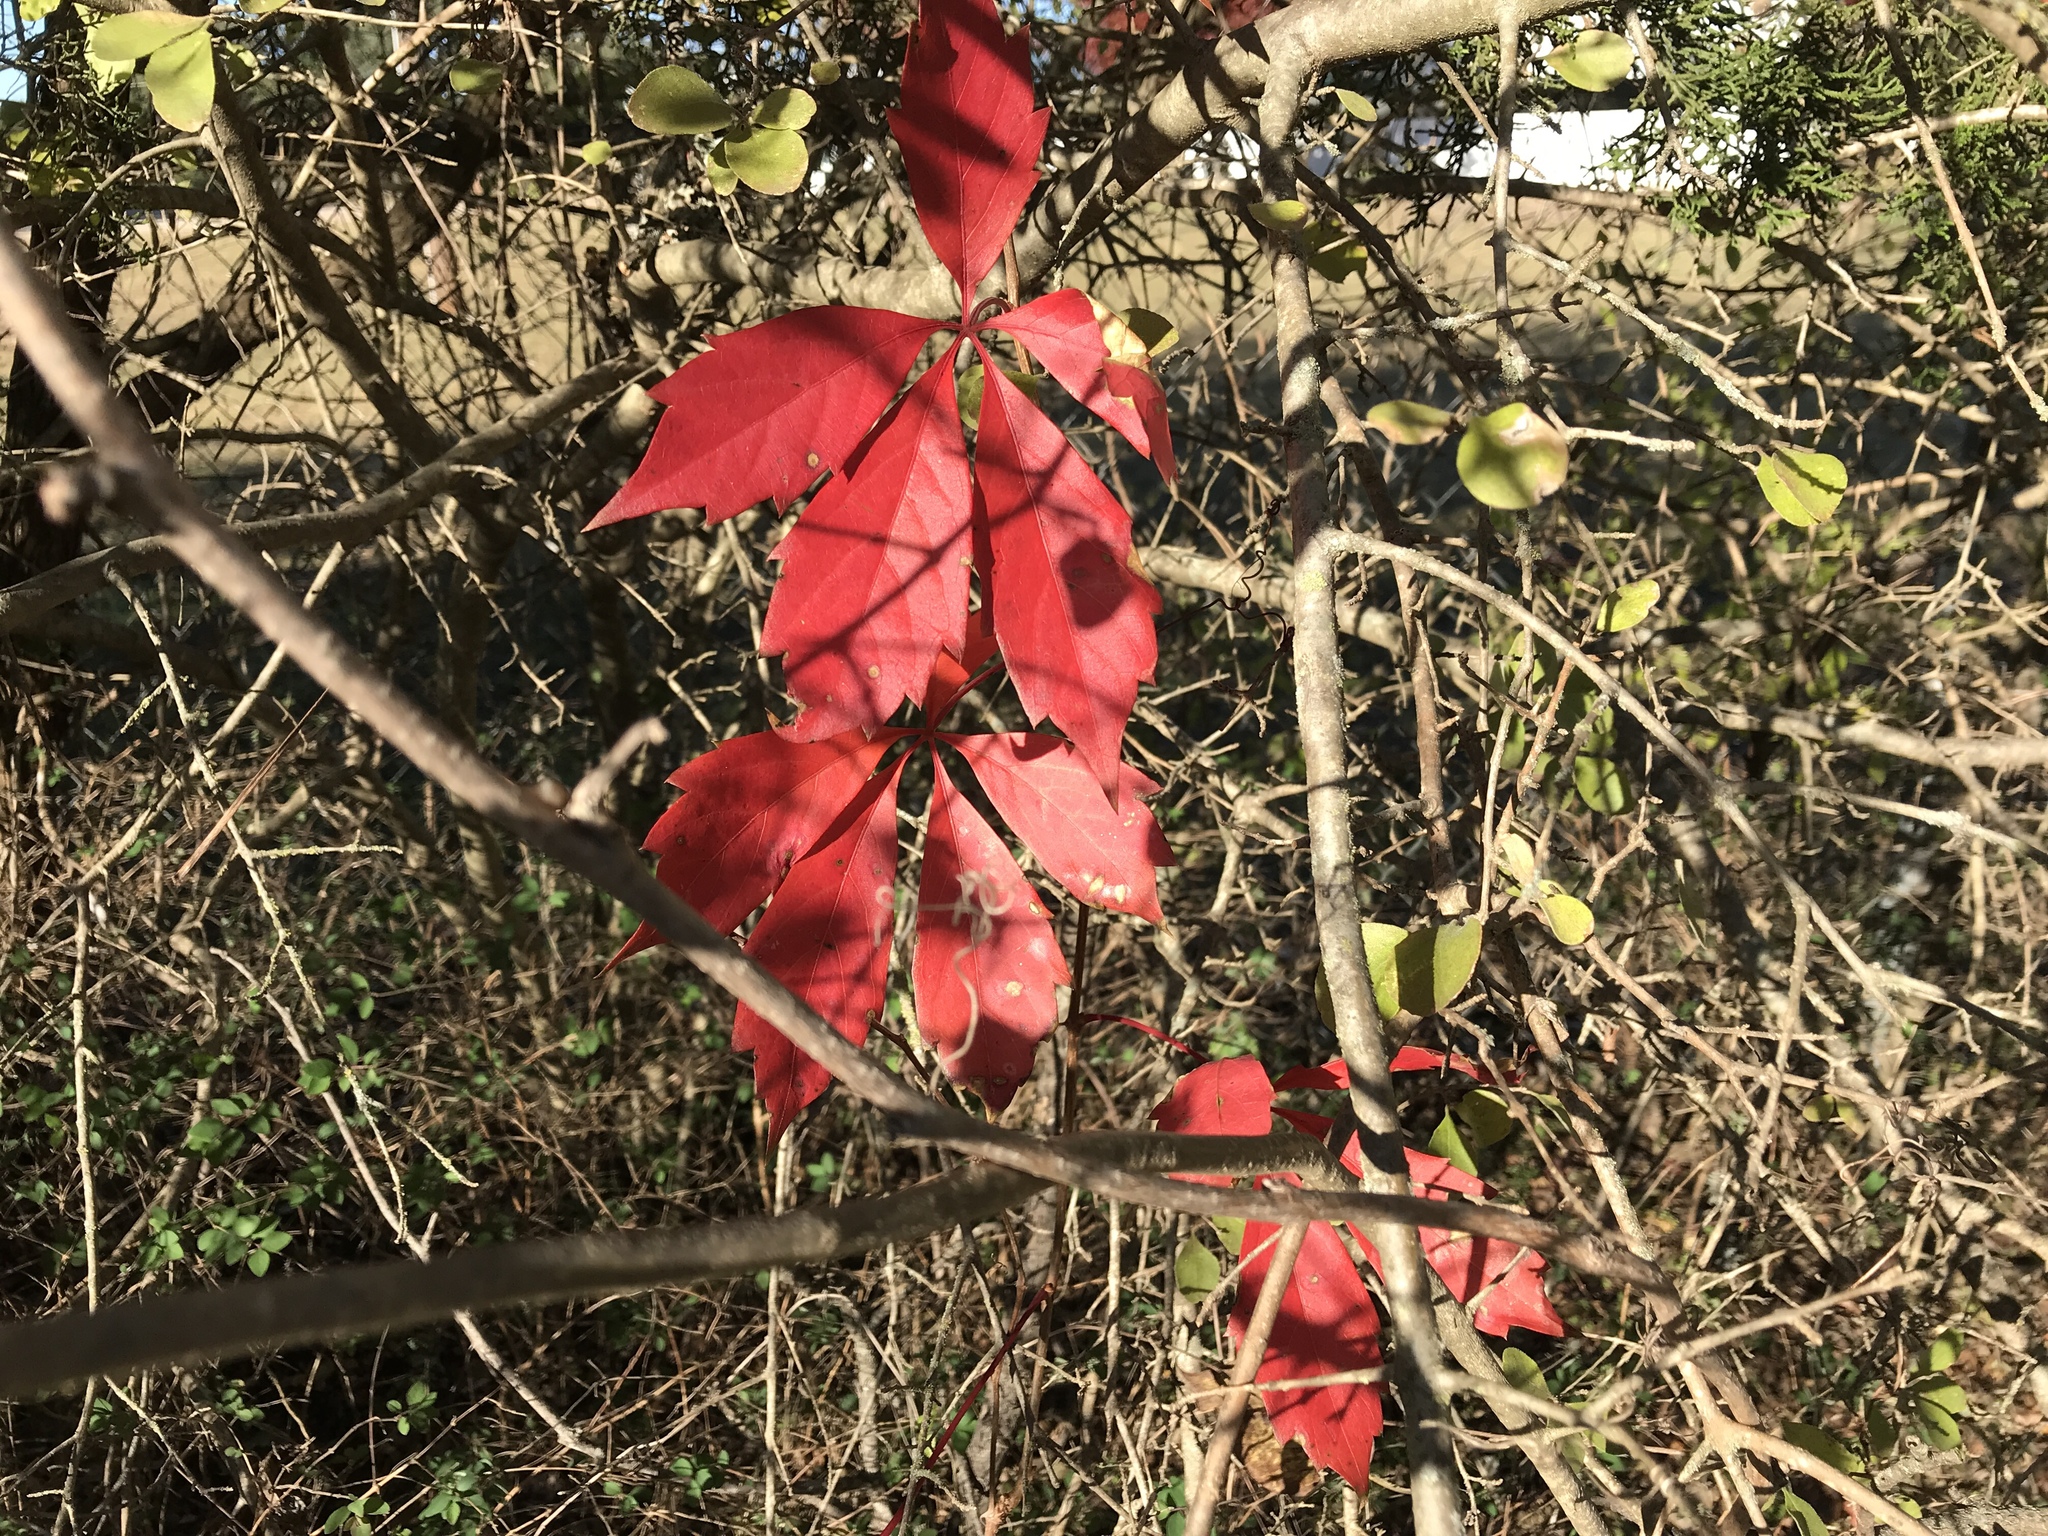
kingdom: Plantae
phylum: Tracheophyta
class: Magnoliopsida
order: Vitales
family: Vitaceae
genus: Parthenocissus
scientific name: Parthenocissus quinquefolia
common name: Virginia-creeper
